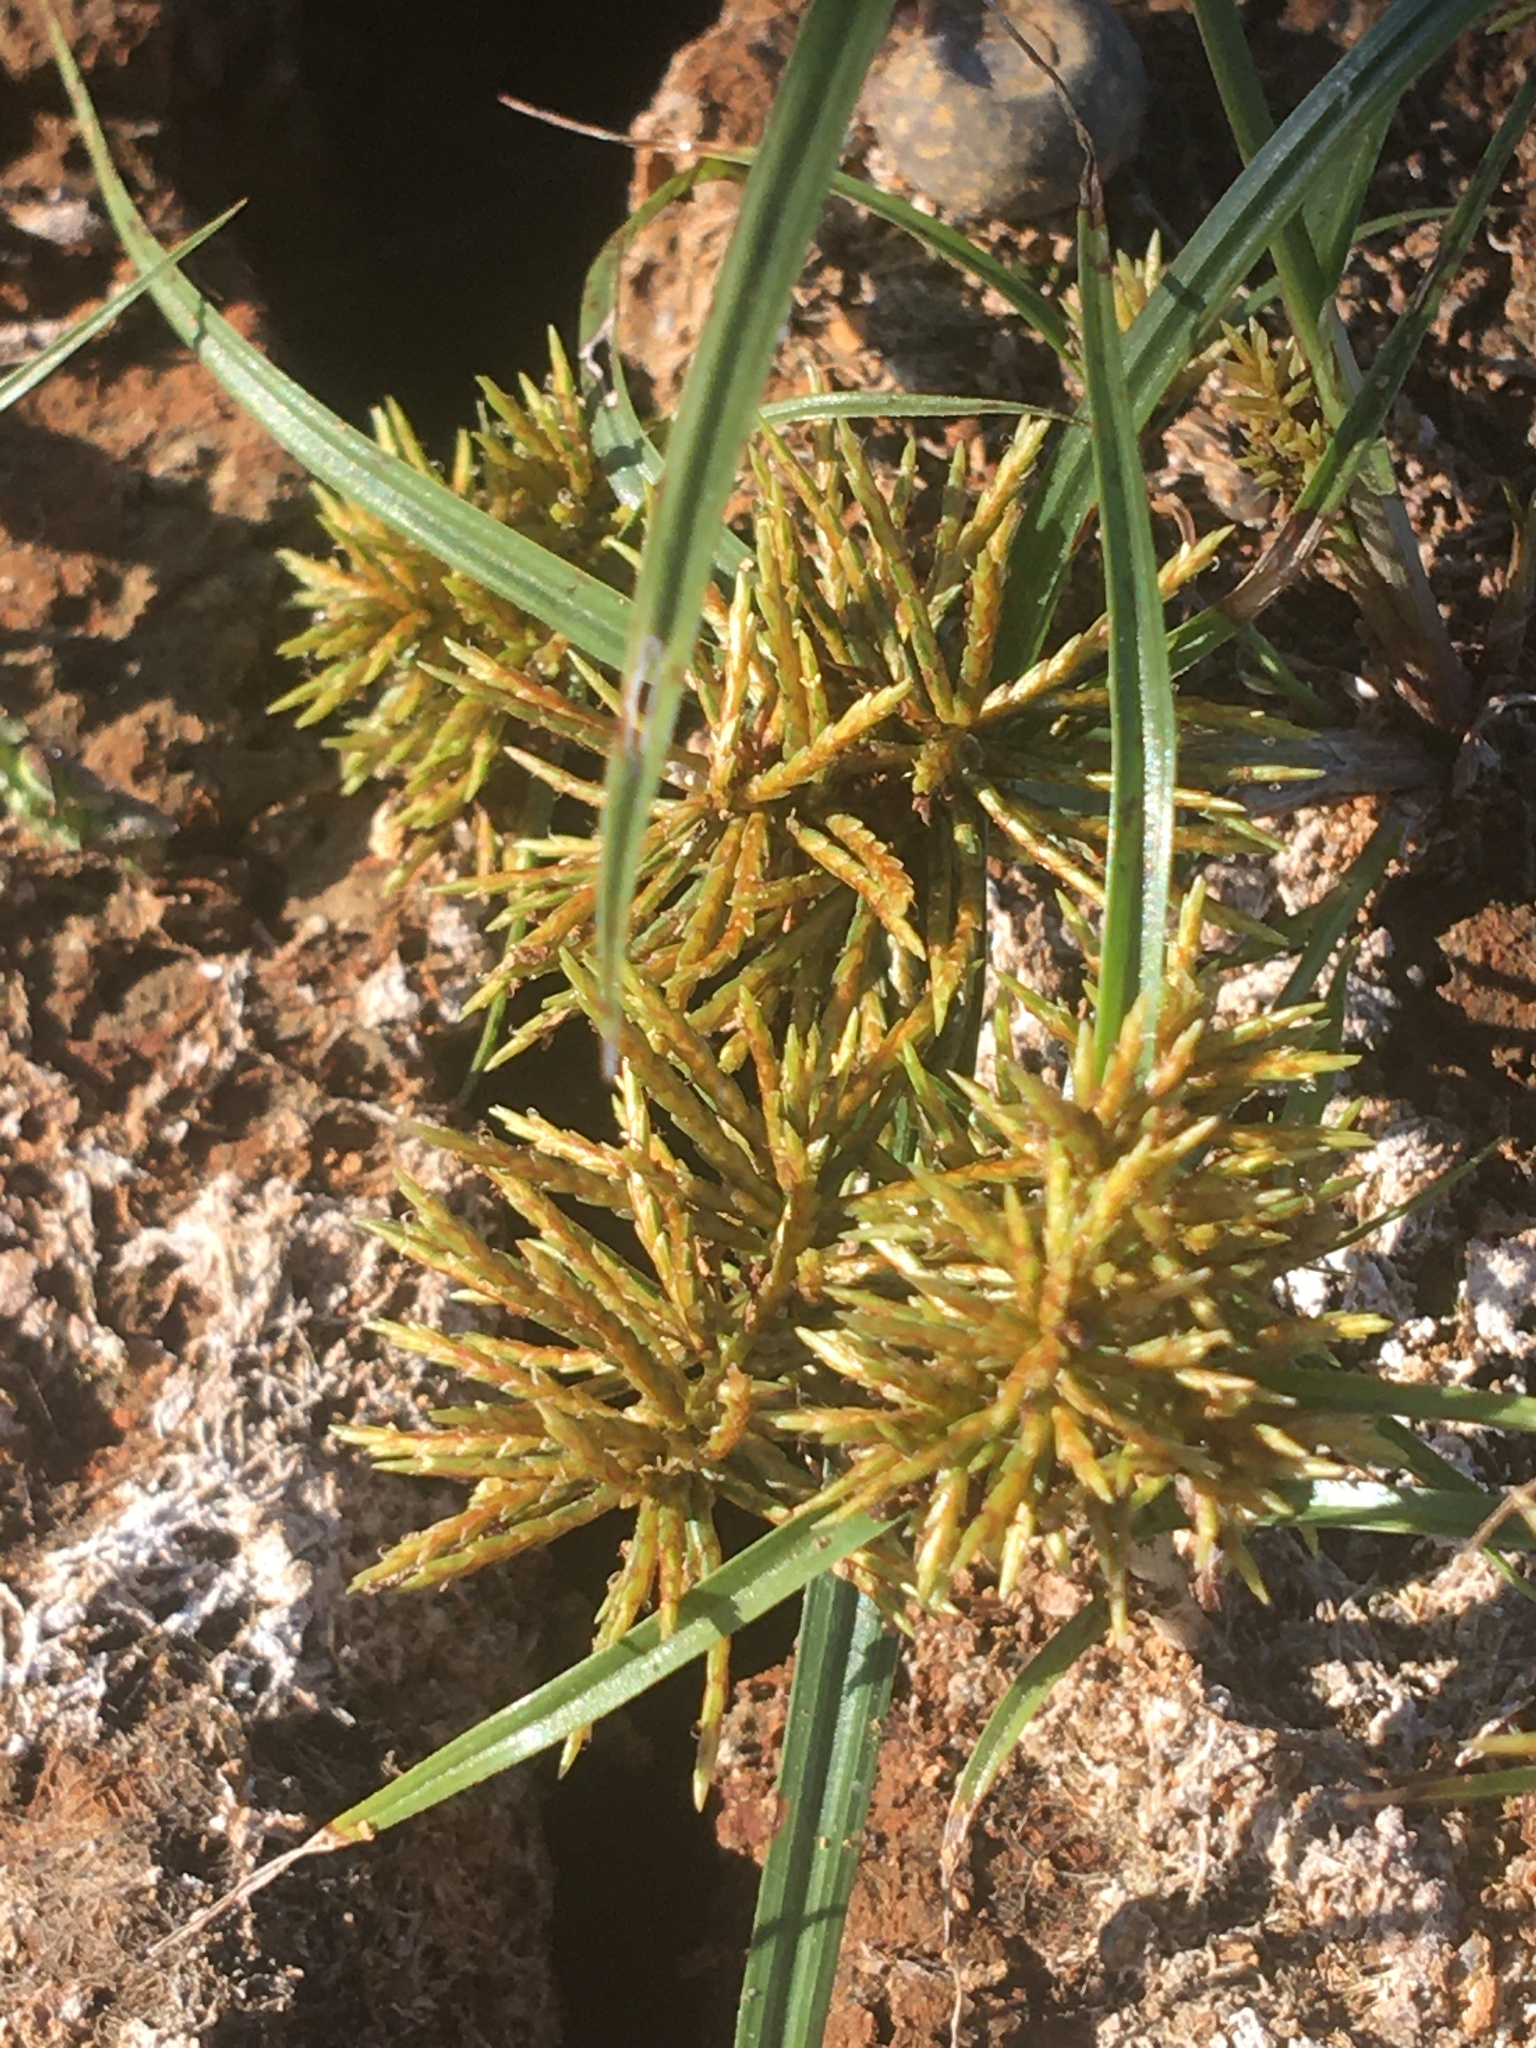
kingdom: Plantae
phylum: Tracheophyta
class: Liliopsida
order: Poales
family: Cyperaceae
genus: Cyperus
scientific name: Cyperus odoratus
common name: Fragrant flatsedge
